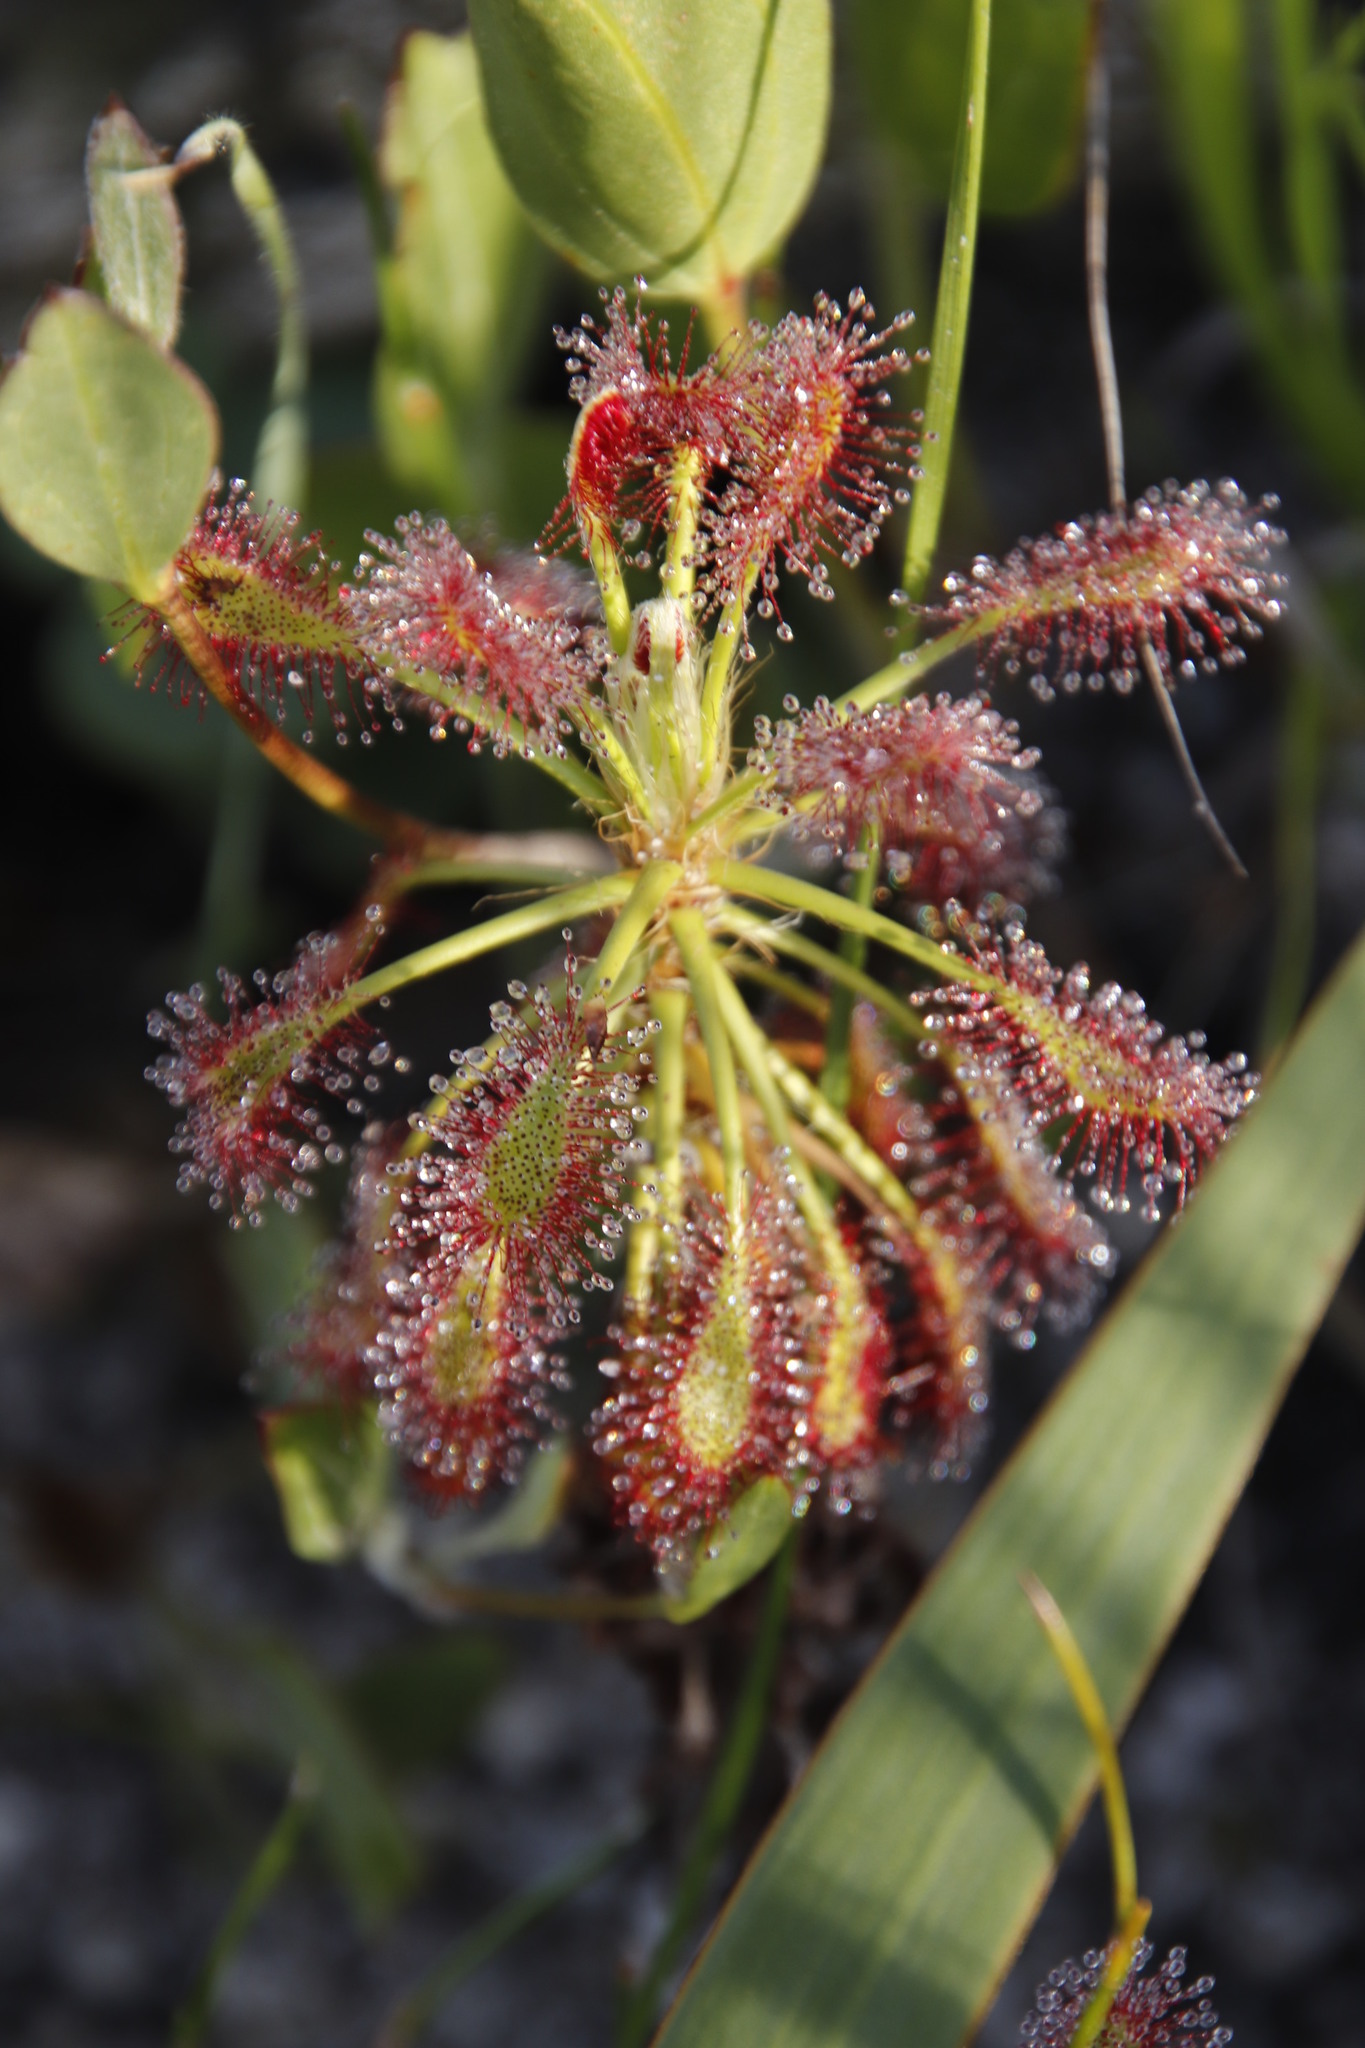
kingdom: Plantae
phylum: Tracheophyta
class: Magnoliopsida
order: Caryophyllales
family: Droseraceae
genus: Drosera
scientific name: Drosera glabripes
